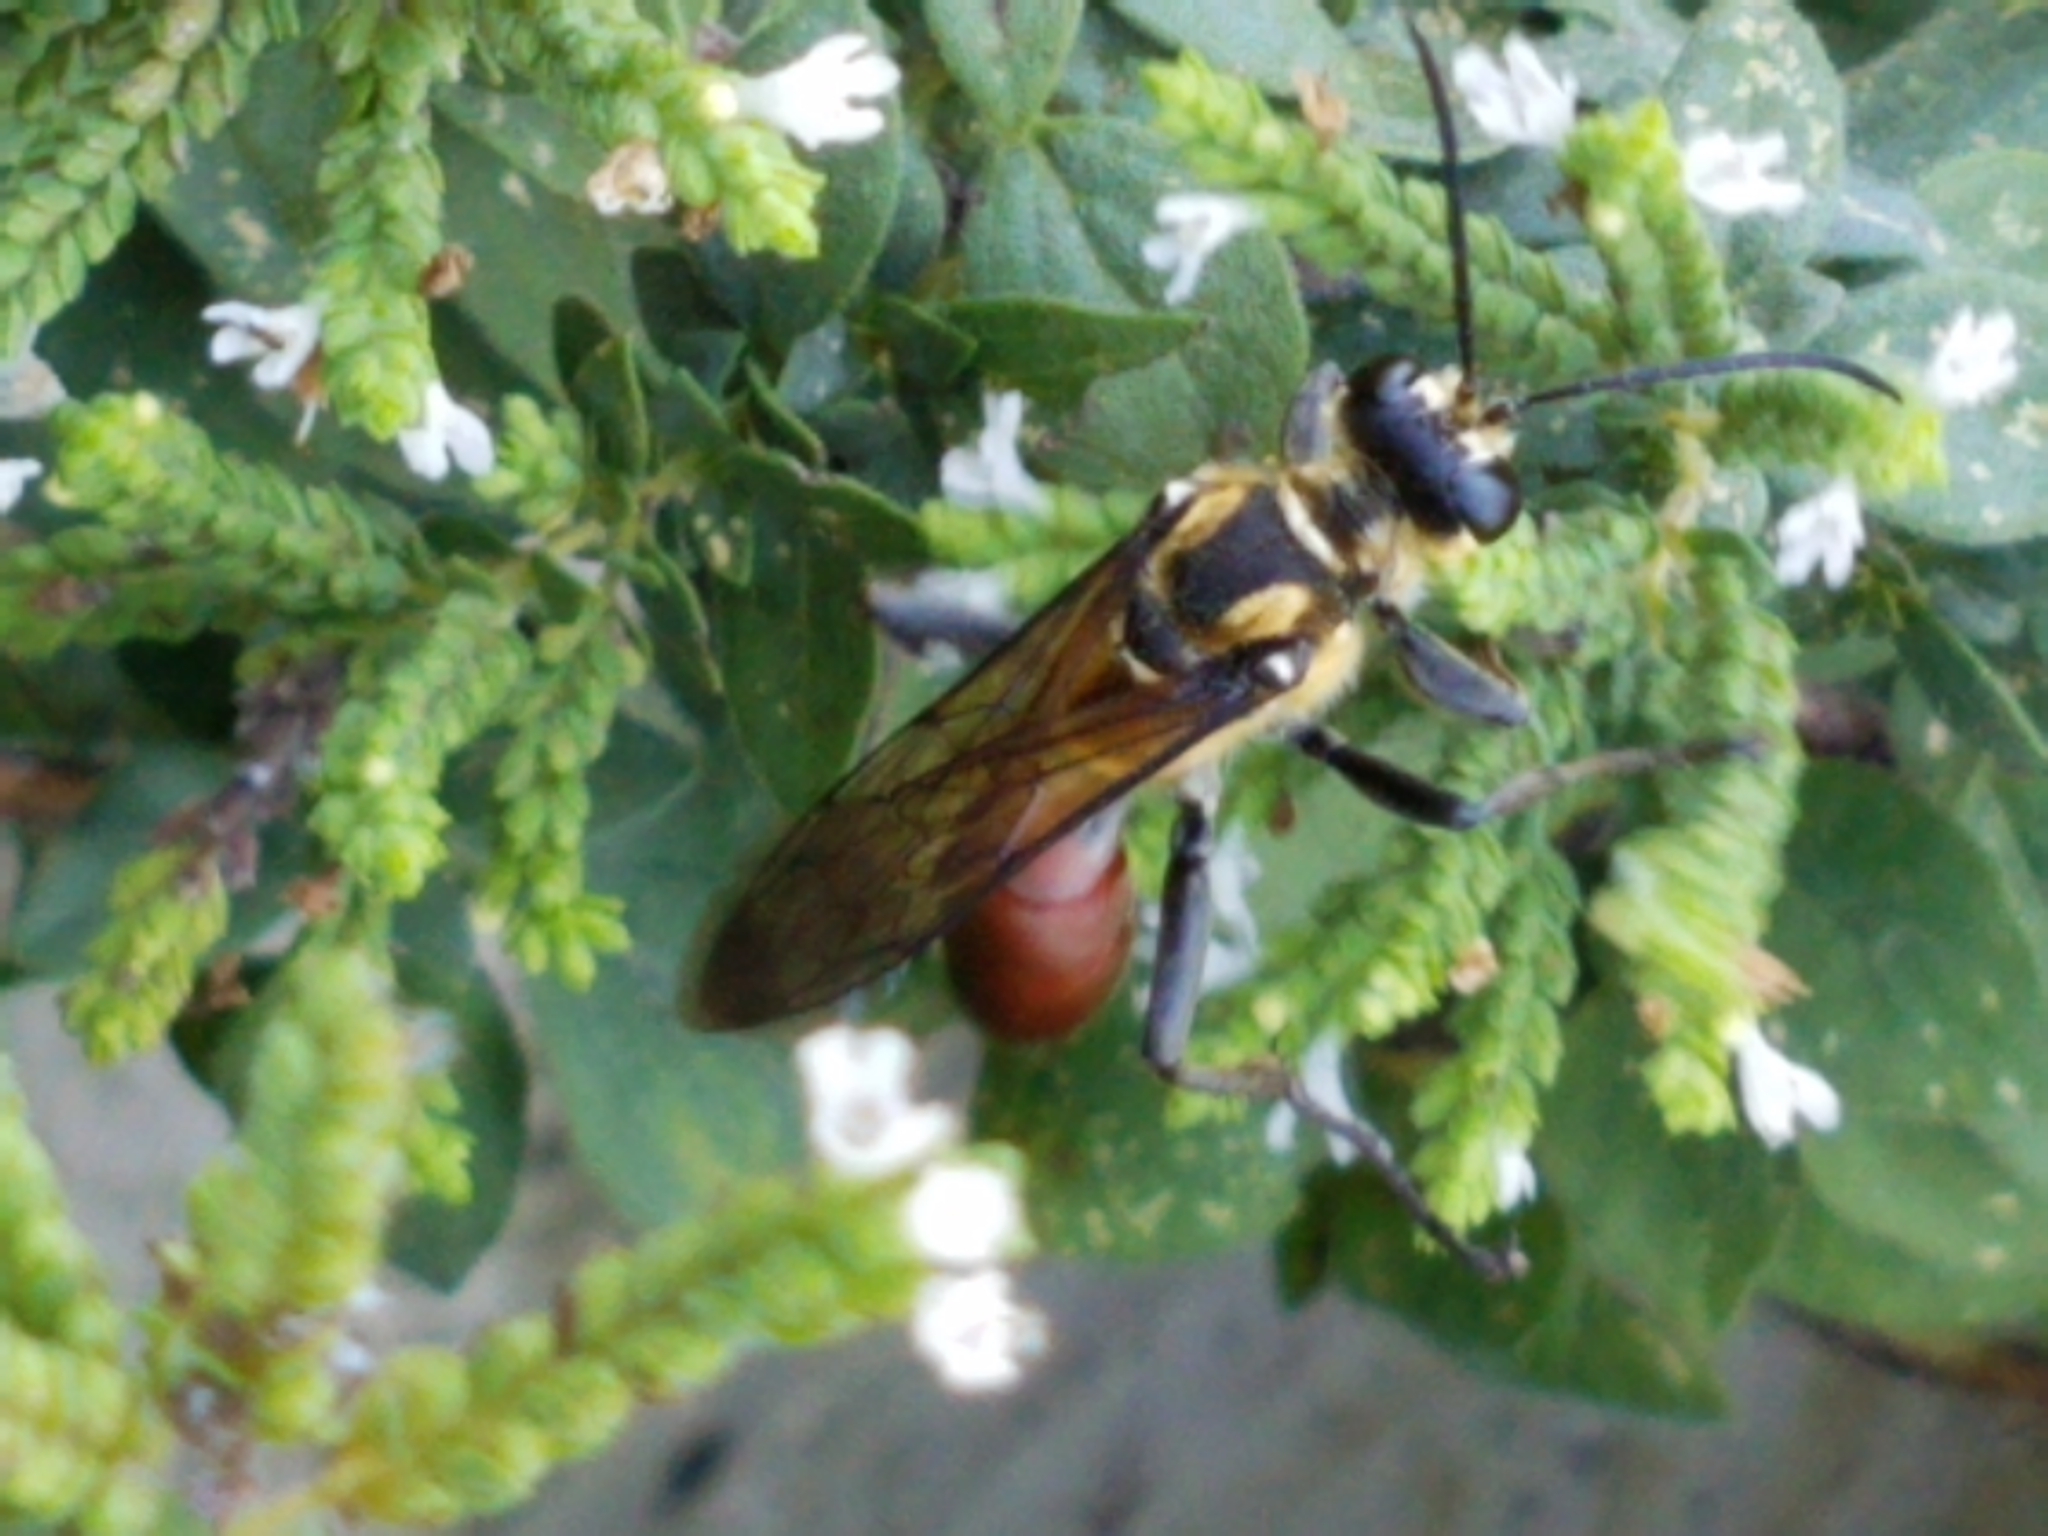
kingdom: Animalia
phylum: Arthropoda
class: Insecta
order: Hymenoptera
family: Sphecidae
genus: Sphex
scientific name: Sphex habenus
